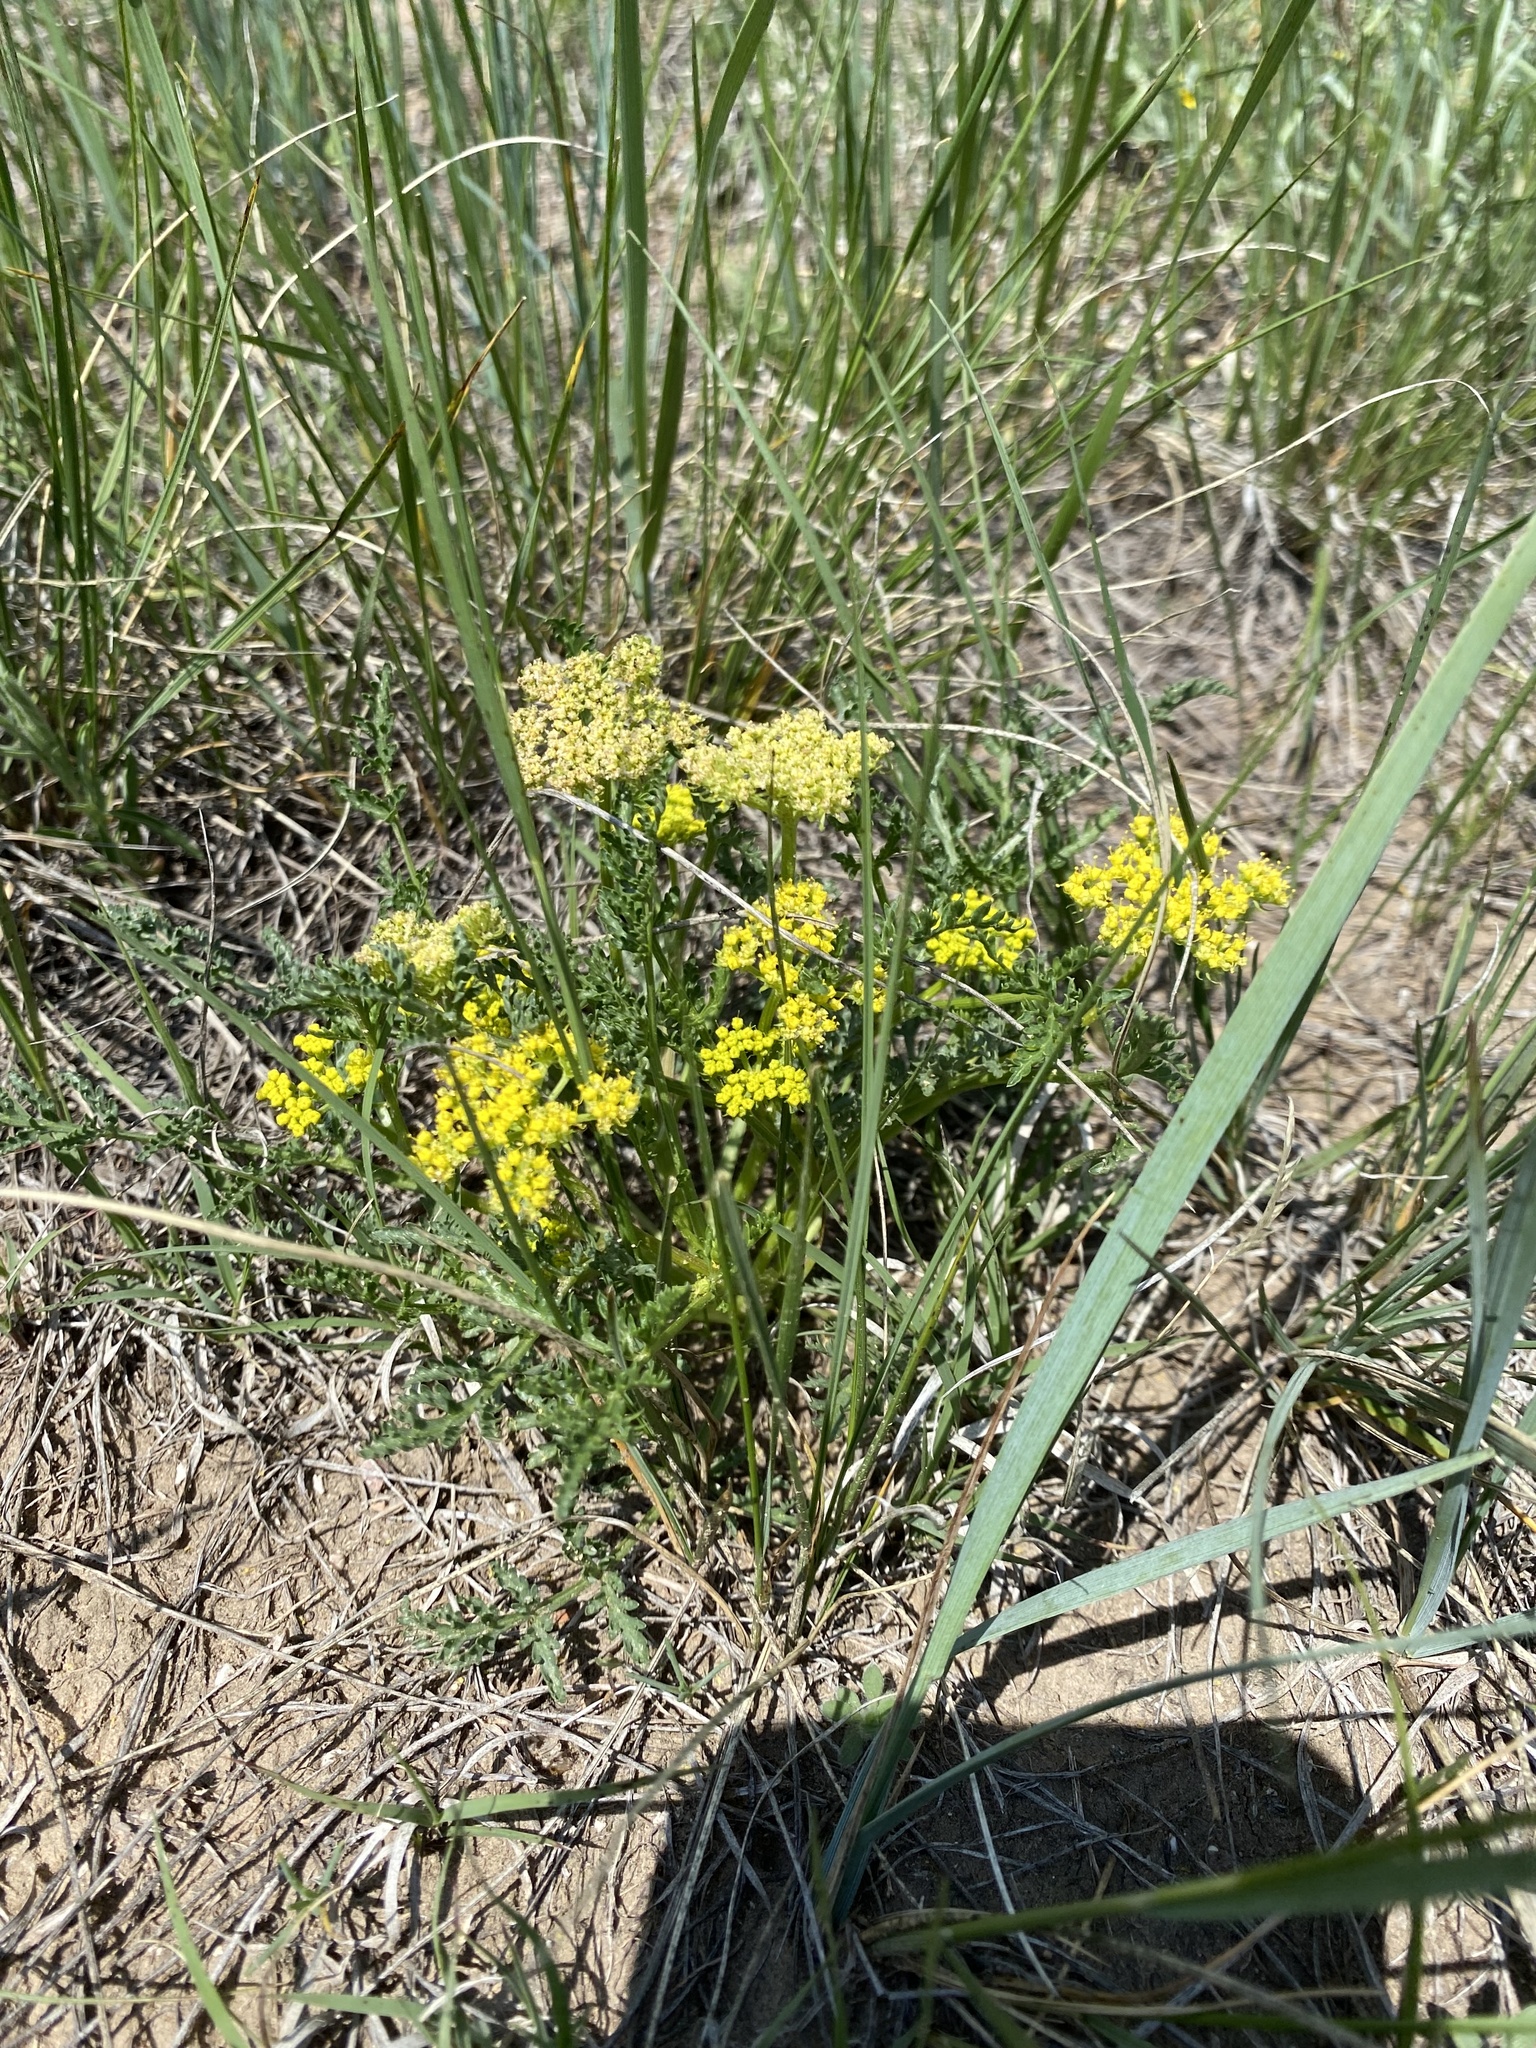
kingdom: Plantae
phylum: Tracheophyta
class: Magnoliopsida
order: Apiales
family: Apiaceae
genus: Musineon
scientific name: Musineon divaricatum
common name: Plains musineon
